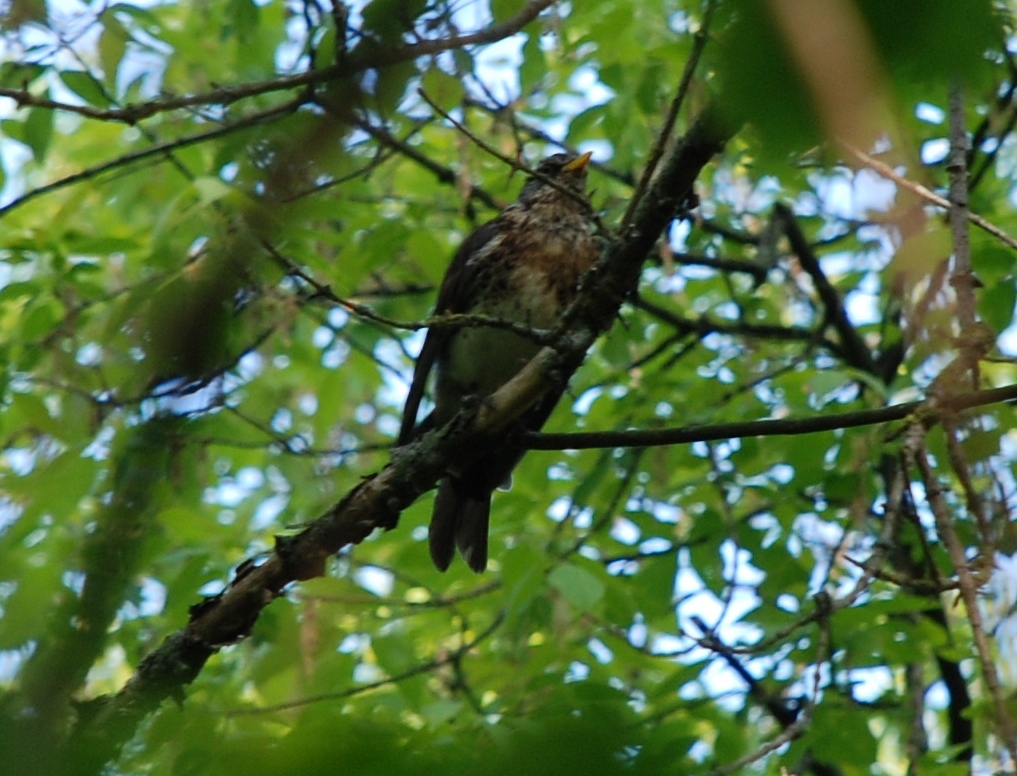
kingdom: Animalia
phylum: Chordata
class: Aves
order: Passeriformes
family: Turdidae
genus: Turdus
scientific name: Turdus pilaris
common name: Fieldfare
